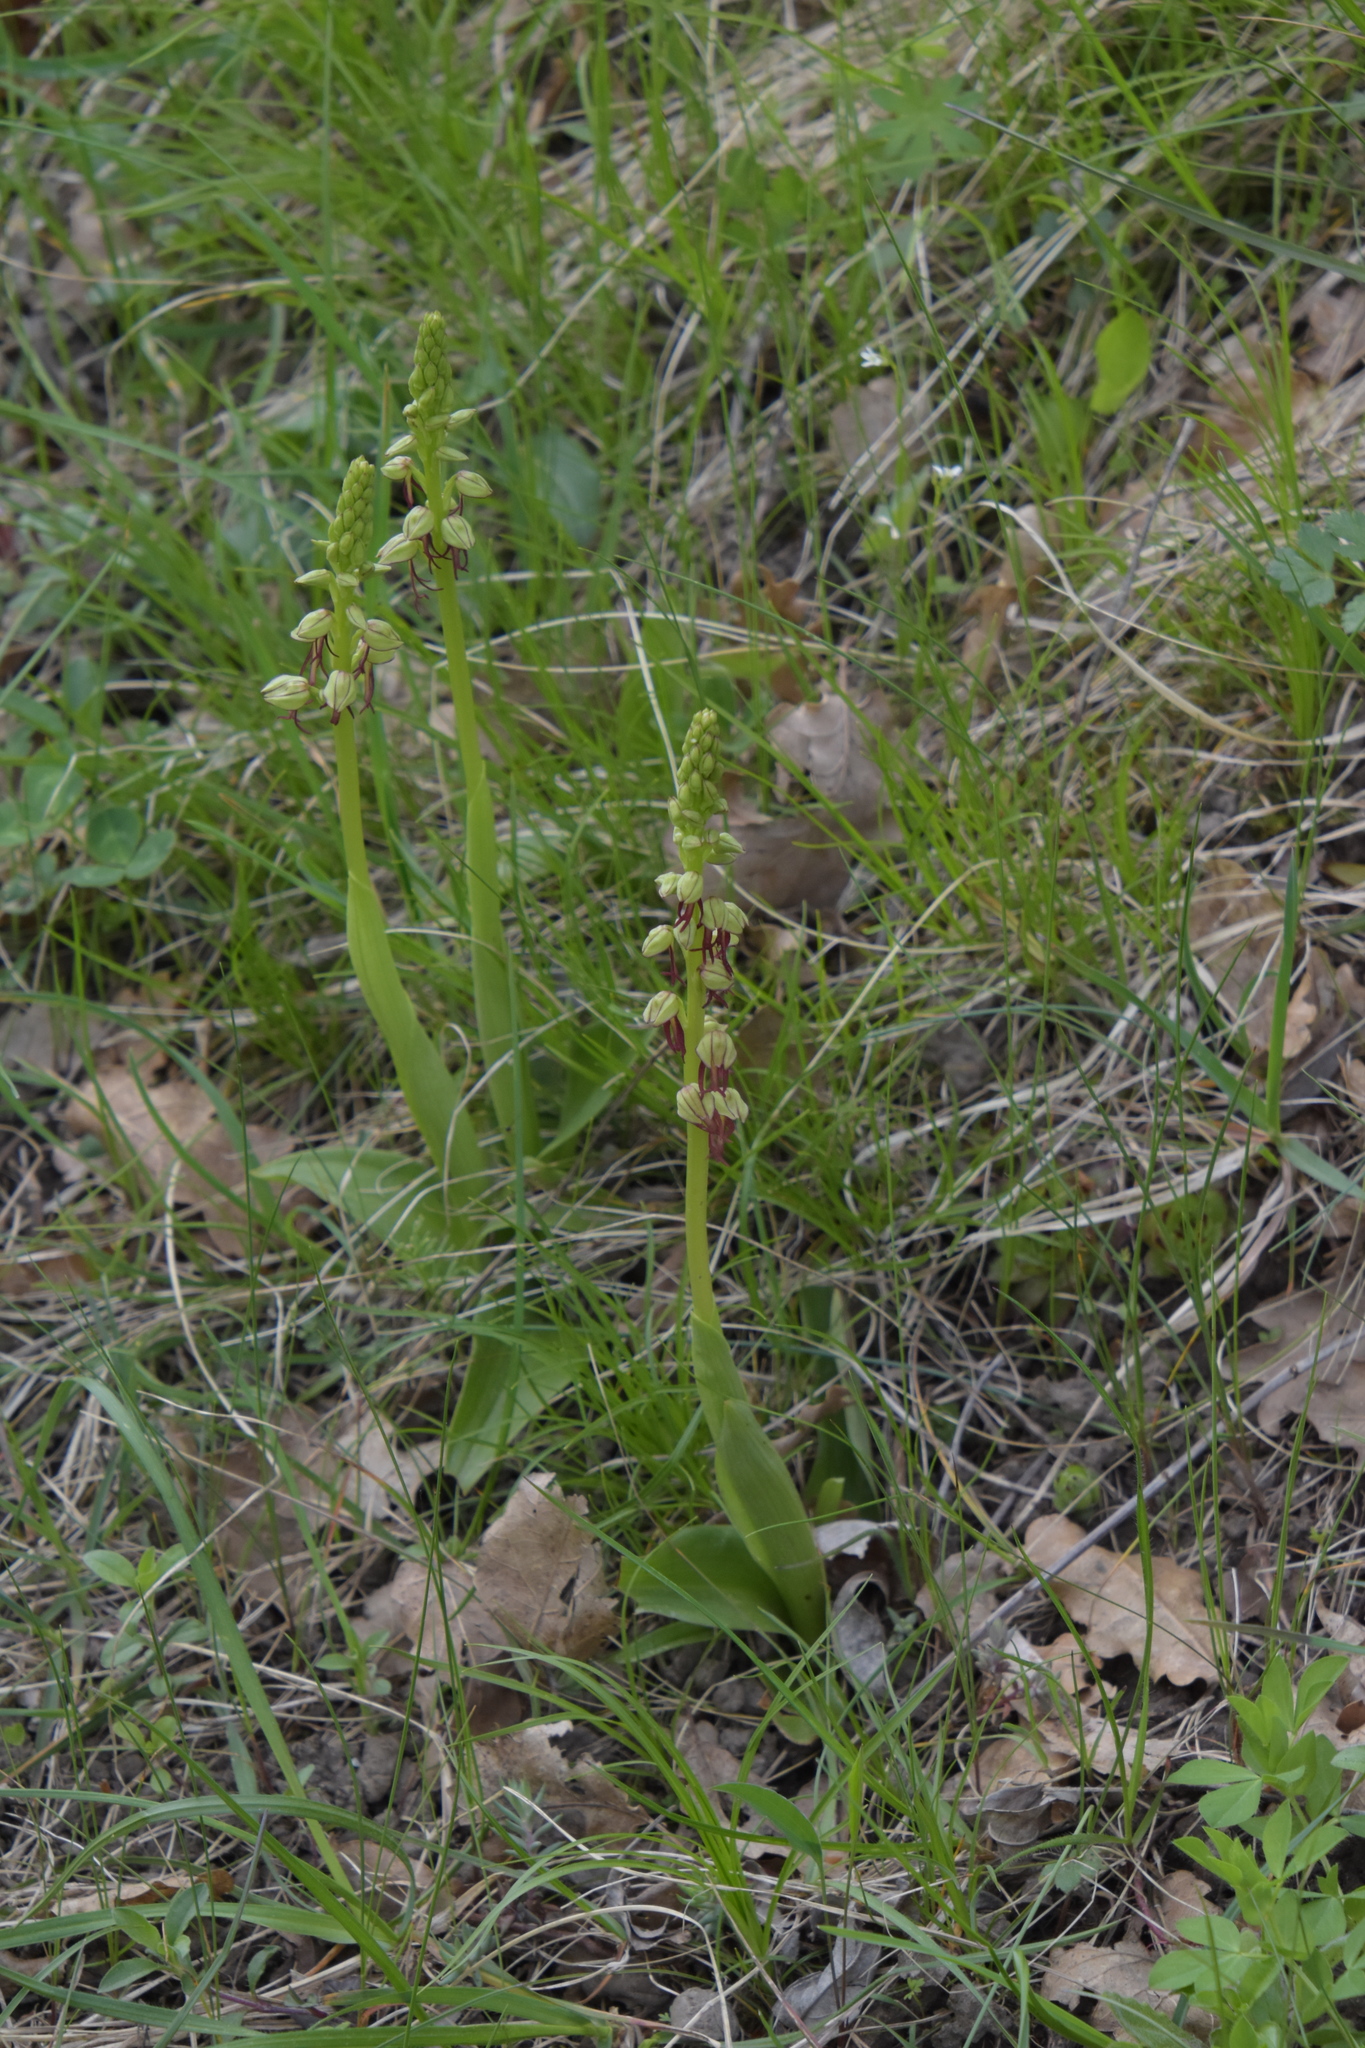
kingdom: Plantae
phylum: Tracheophyta
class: Liliopsida
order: Asparagales
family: Orchidaceae
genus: Orchis
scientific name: Orchis anthropophora
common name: Man orchid
